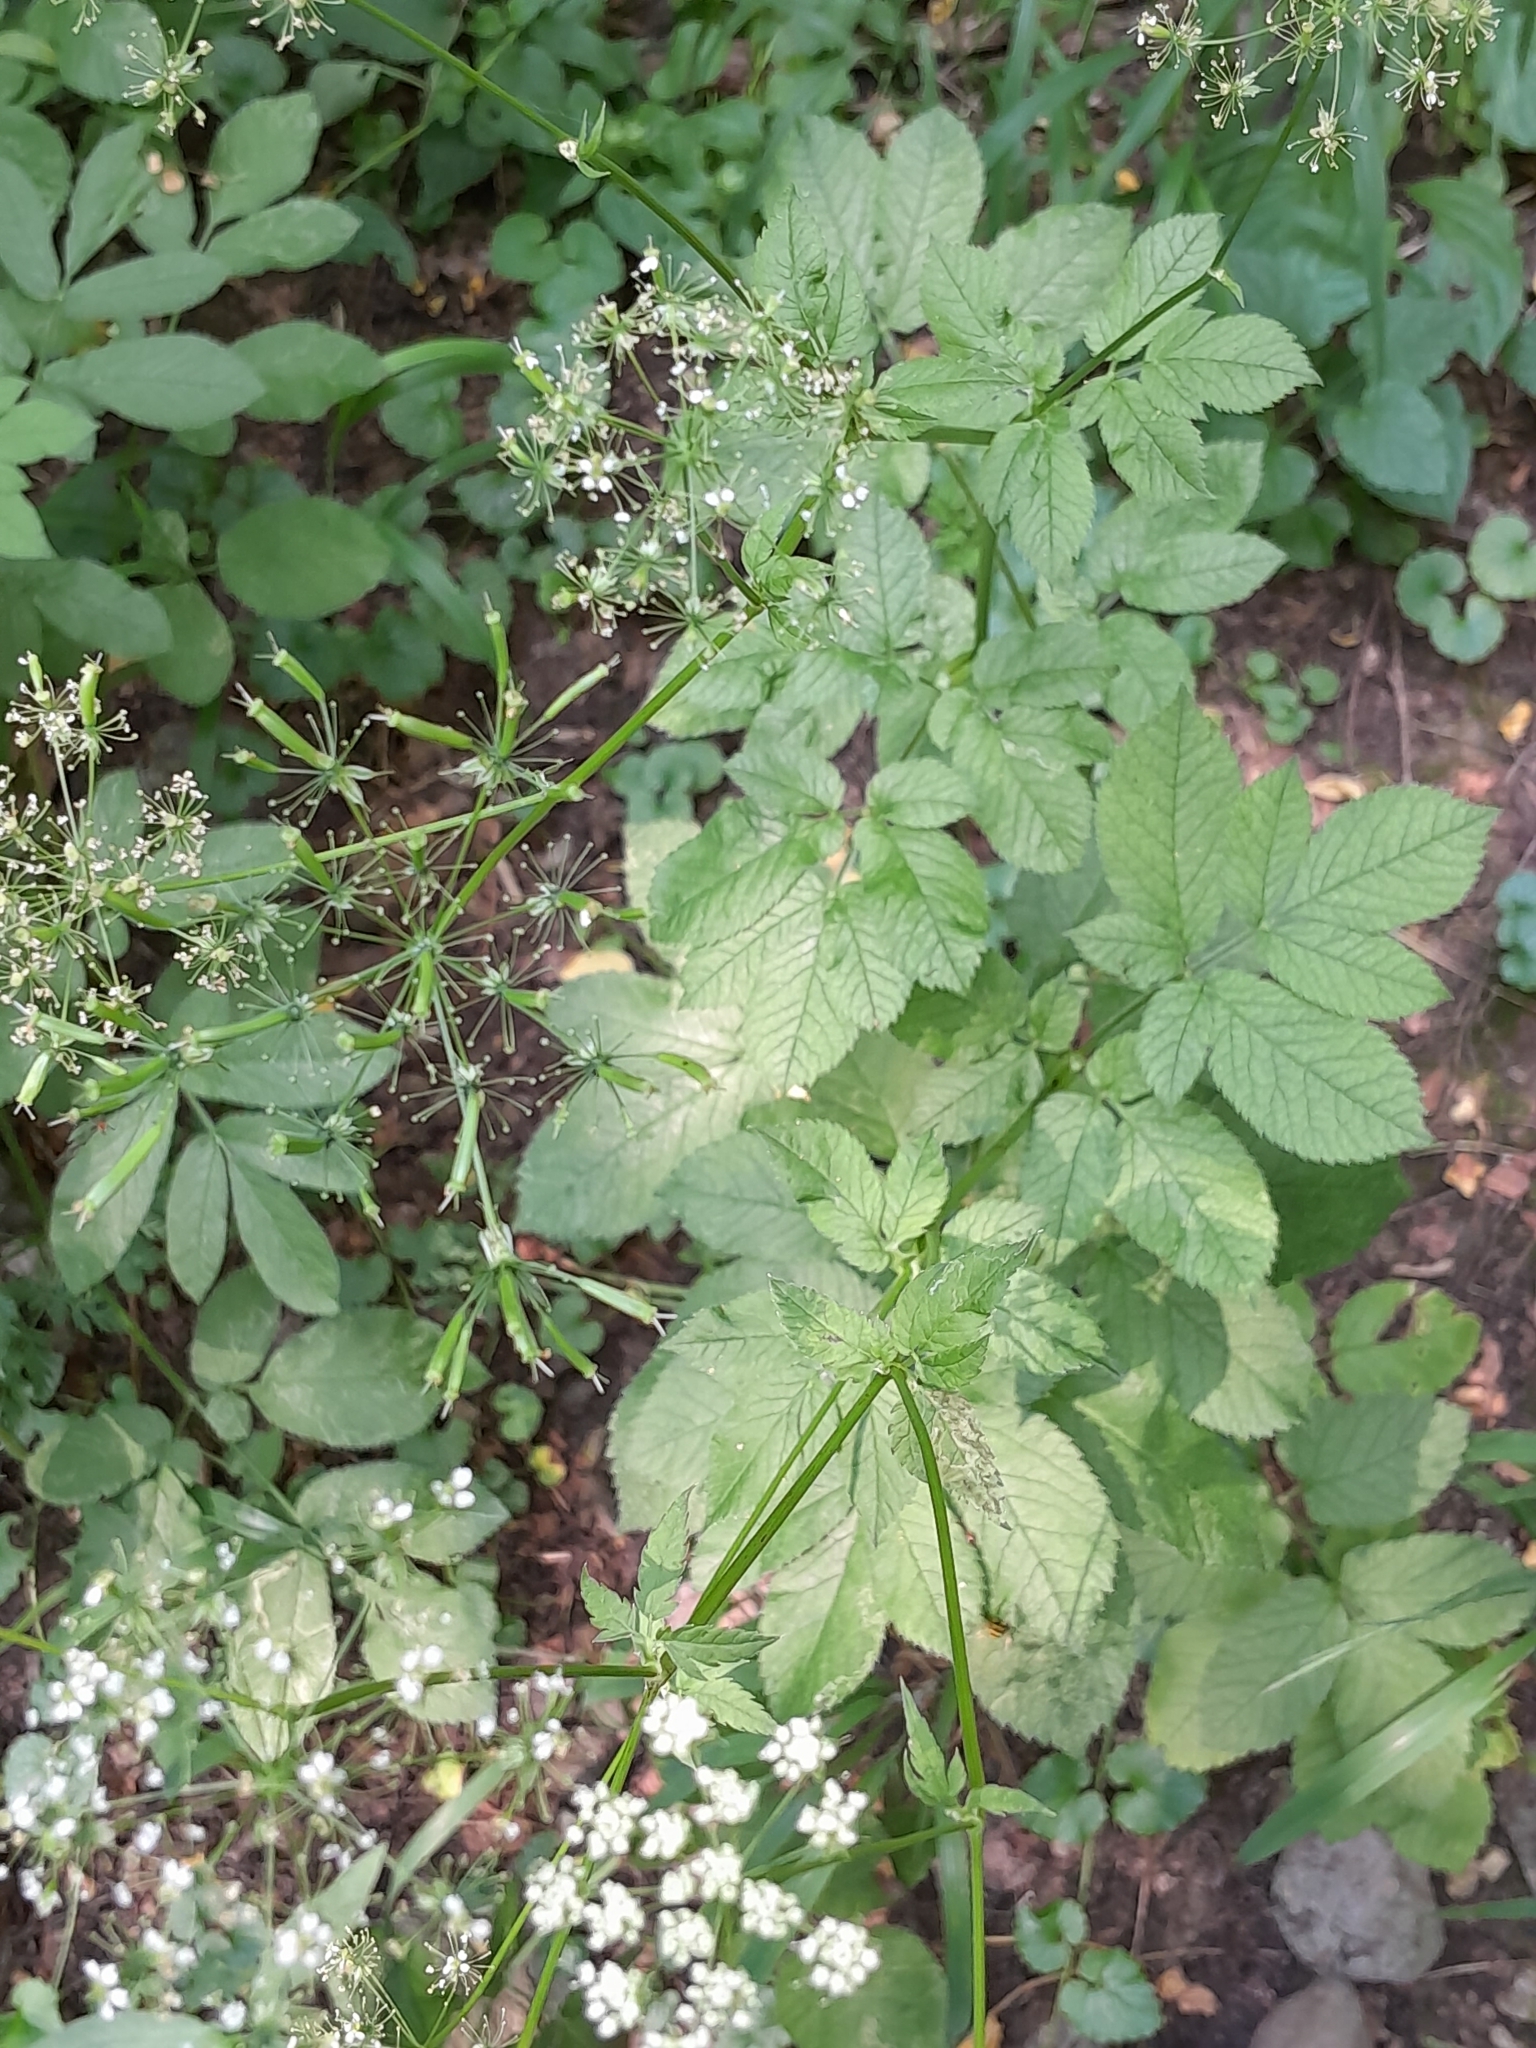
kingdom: Plantae
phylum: Tracheophyta
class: Magnoliopsida
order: Apiales
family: Apiaceae
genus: Chaerophyllum
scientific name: Chaerophyllum aromaticum
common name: Broadleaf chervil
